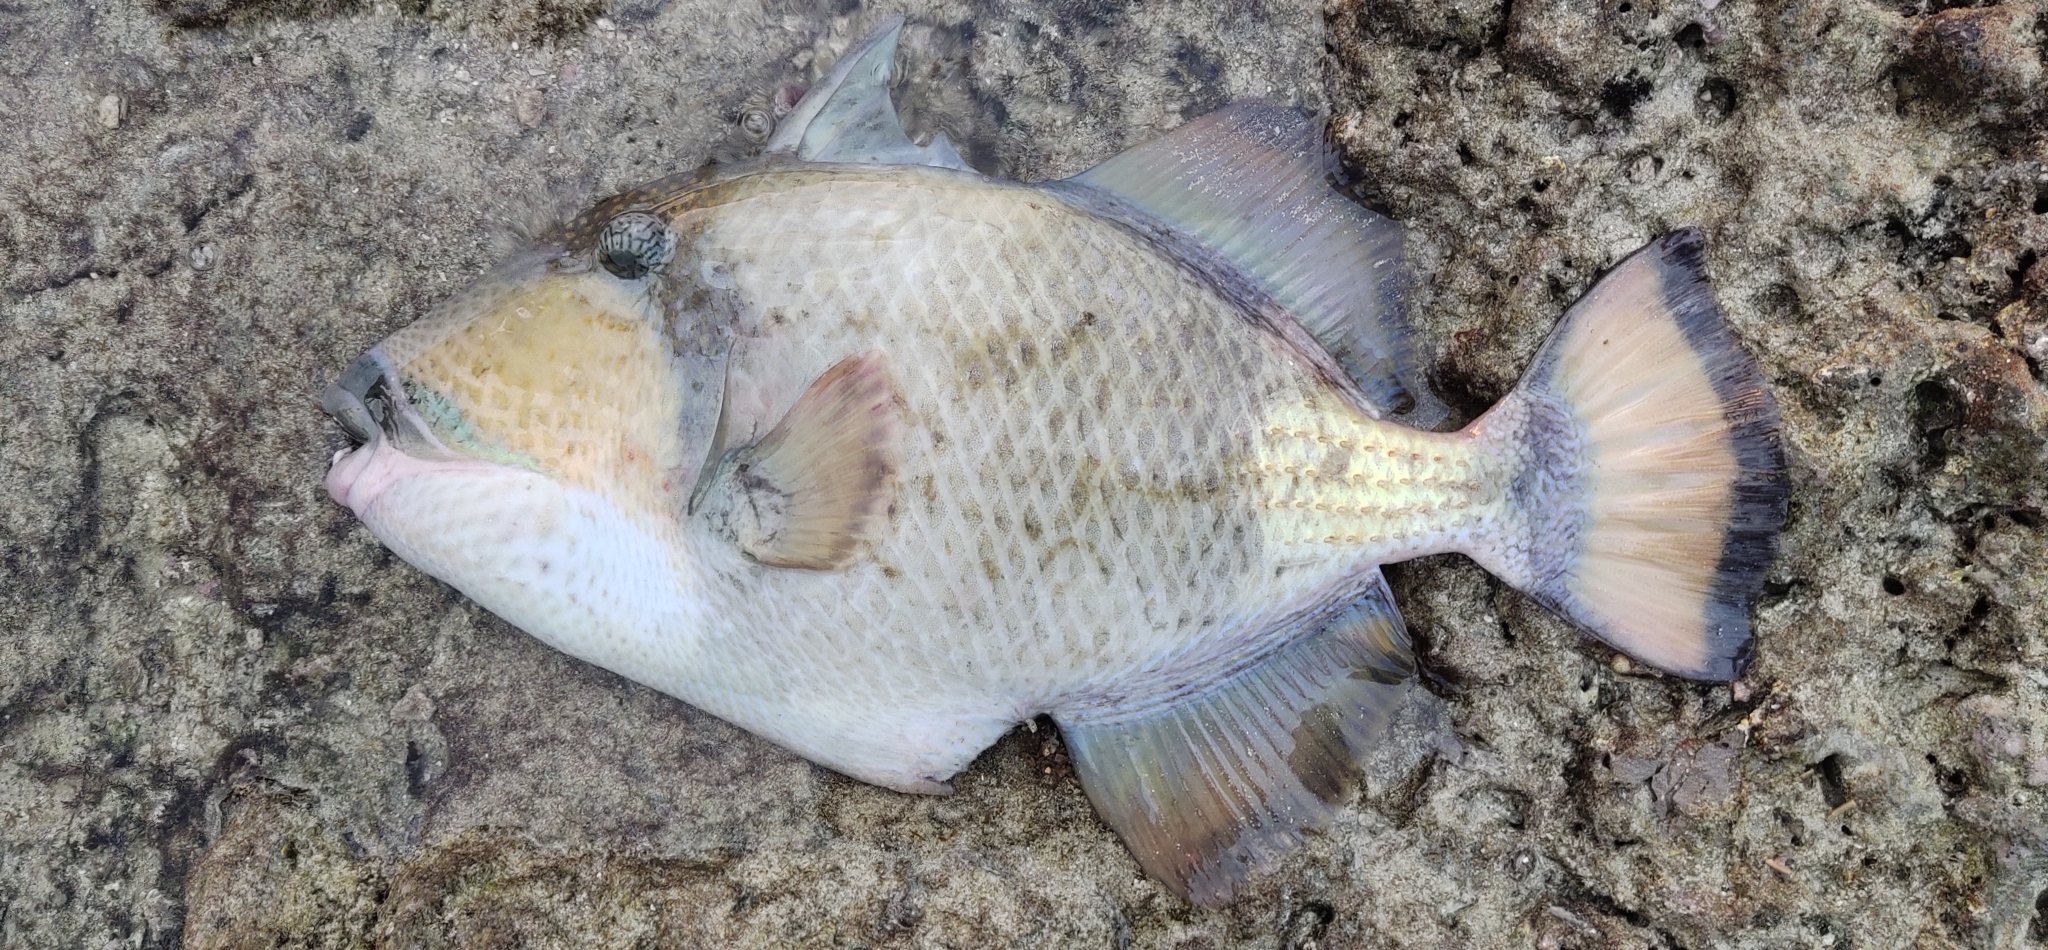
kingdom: Animalia
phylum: Chordata
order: Tetraodontiformes
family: Balistidae
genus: Balistoides
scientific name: Balistoides viridescens
